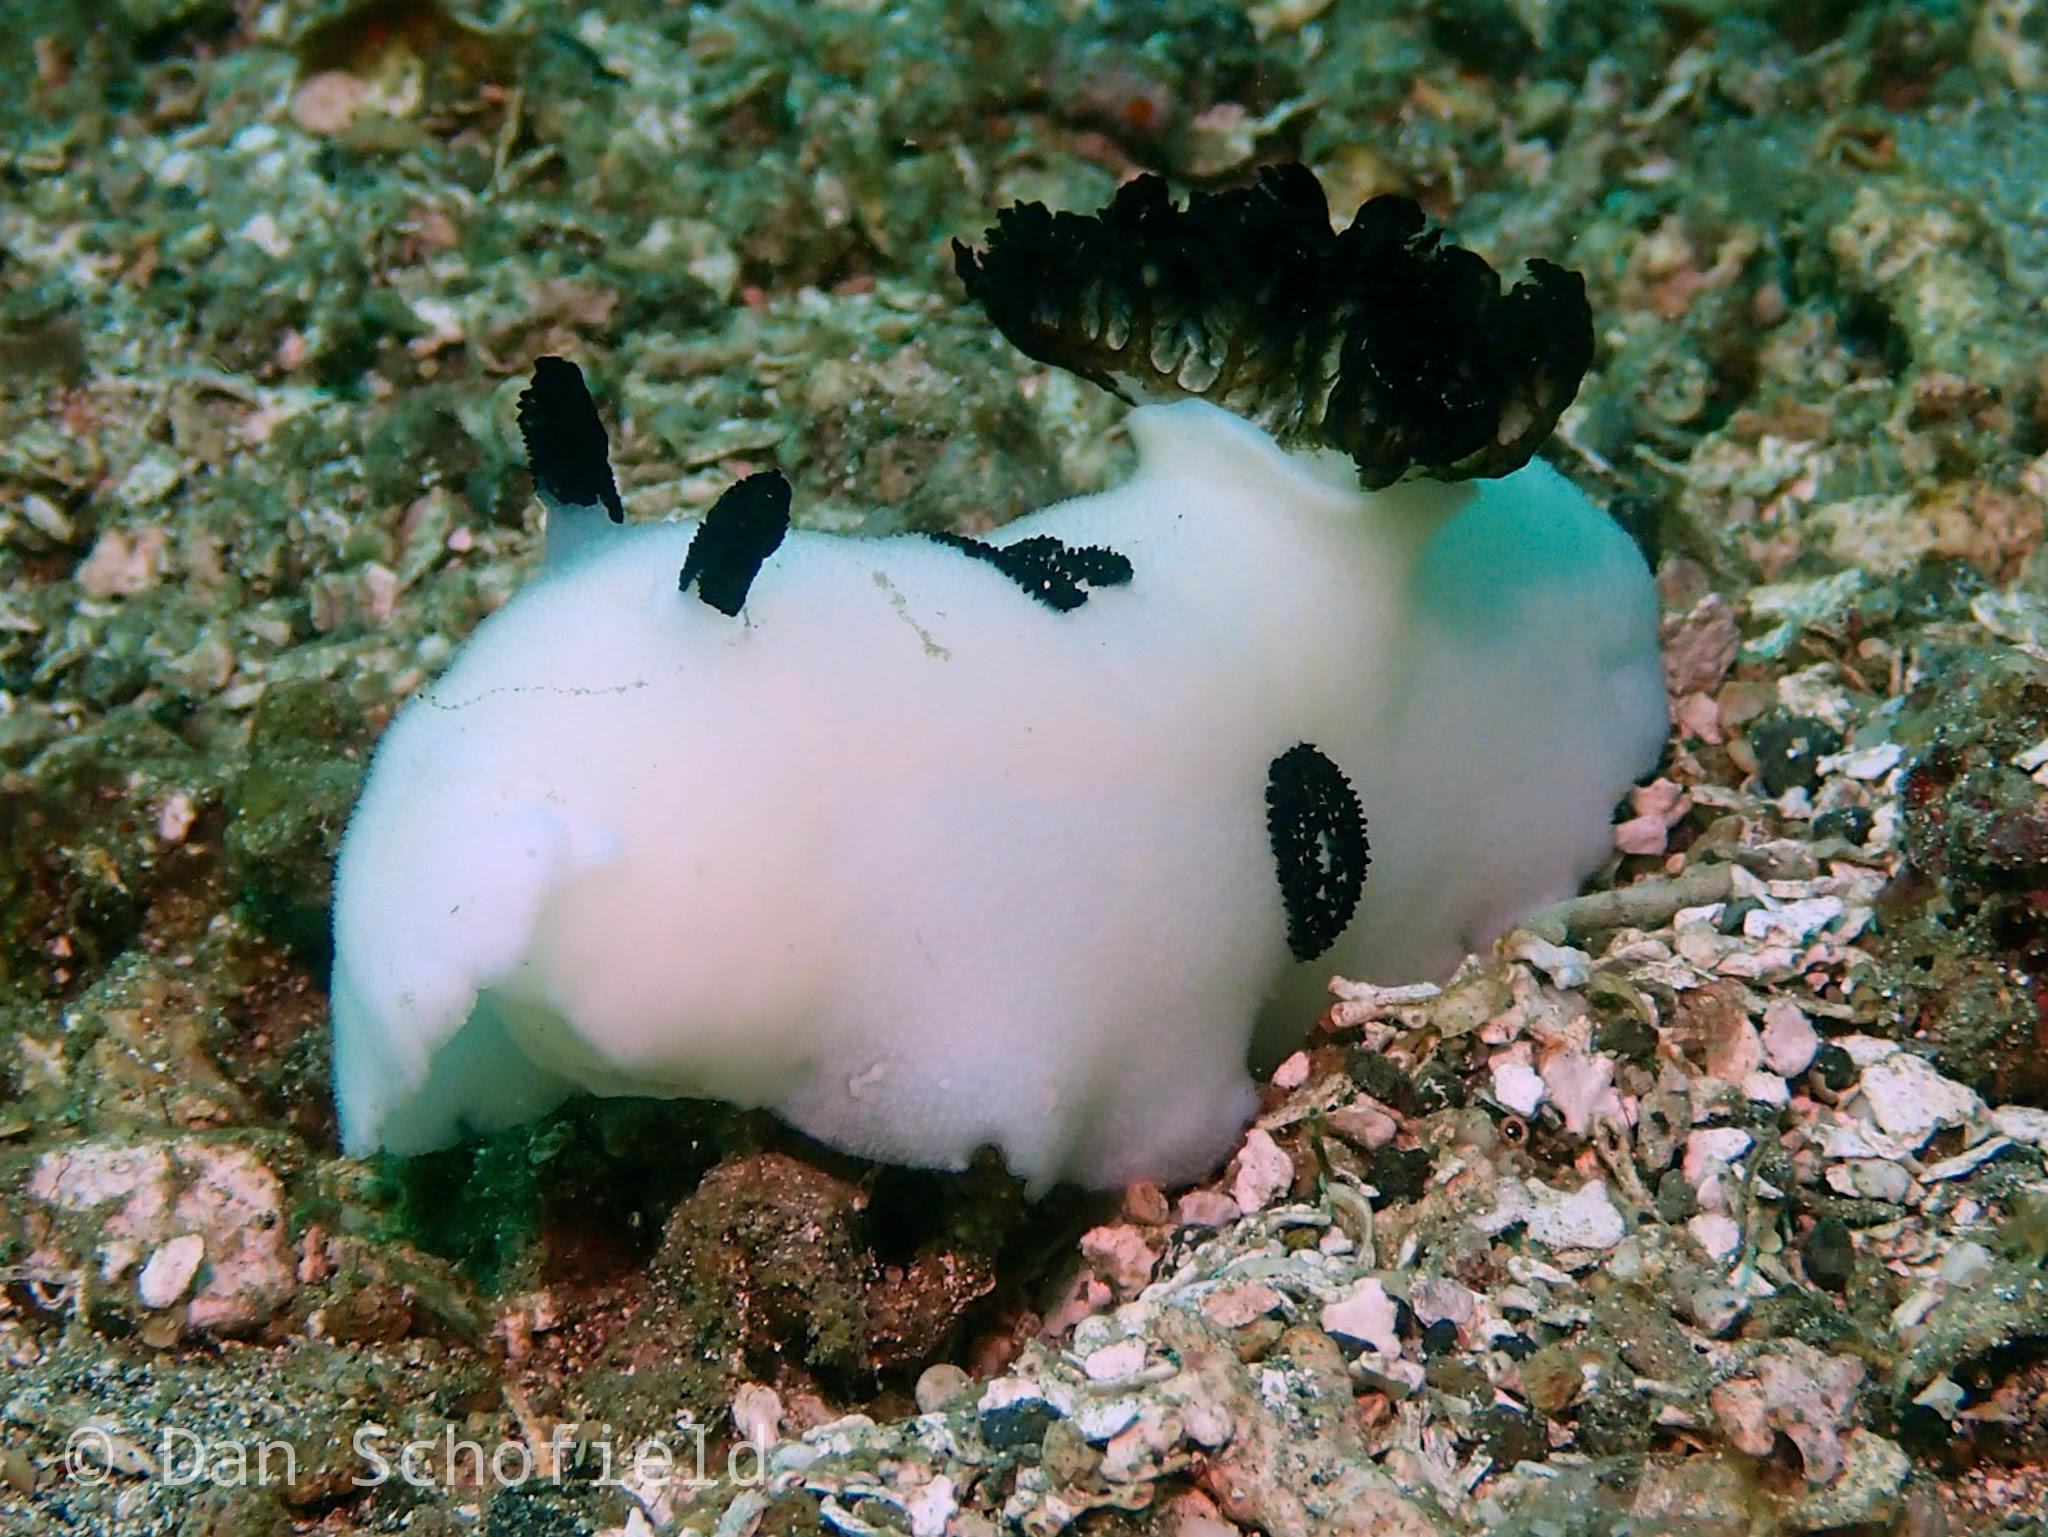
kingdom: Animalia
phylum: Mollusca
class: Gastropoda
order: Nudibranchia
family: Discodorididae
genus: Jorunna
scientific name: Jorunna funebris
